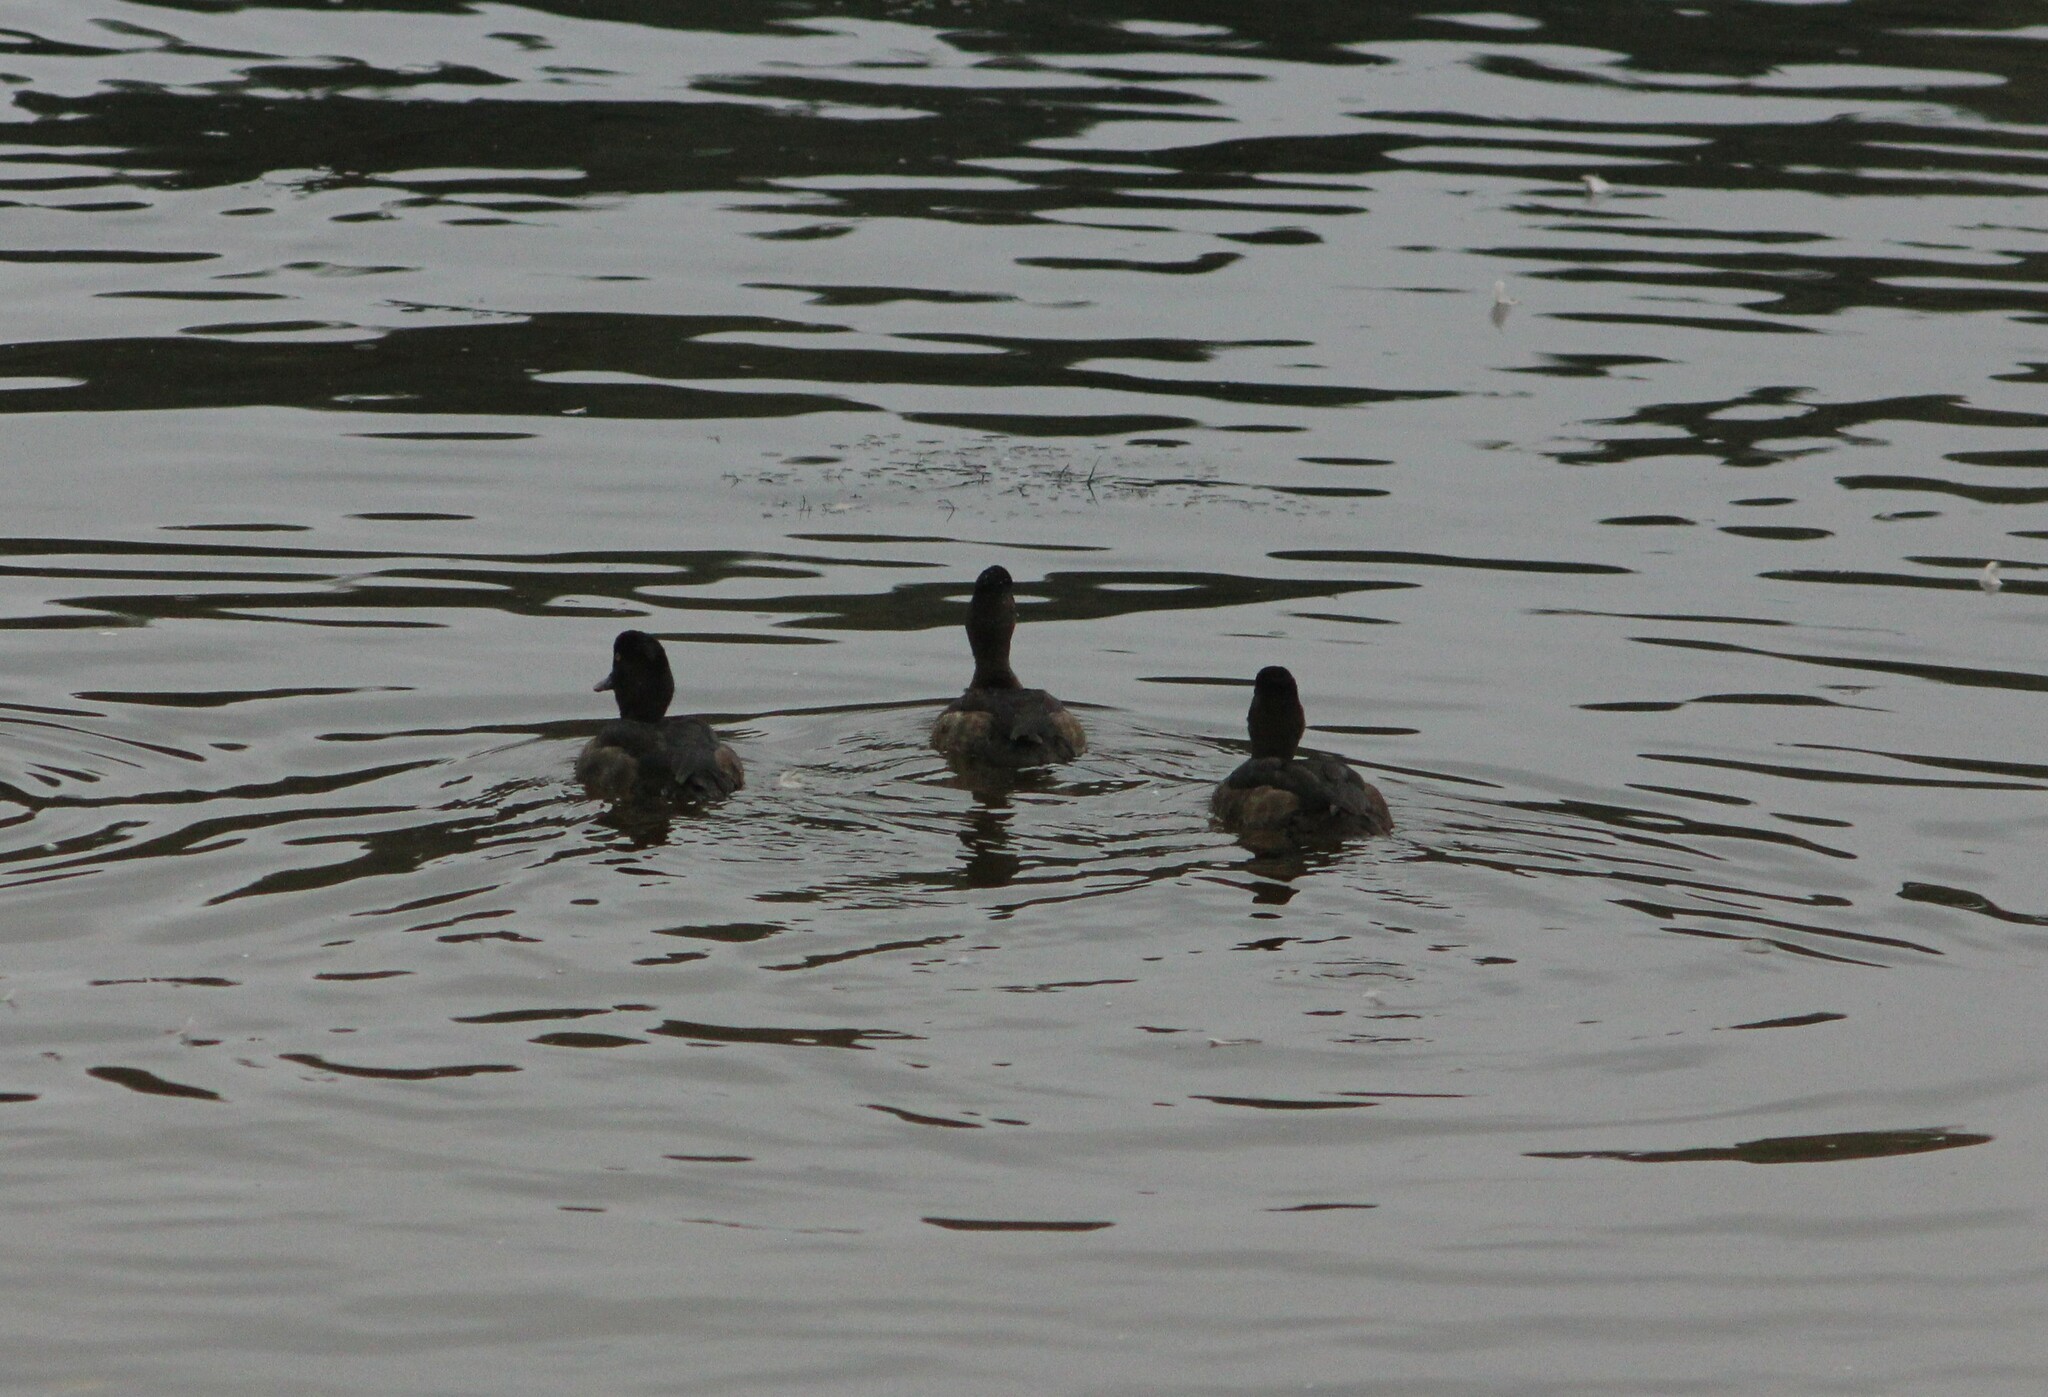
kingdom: Animalia
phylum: Chordata
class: Aves
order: Anseriformes
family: Anatidae
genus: Aythya
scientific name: Aythya fuligula
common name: Tufted duck
